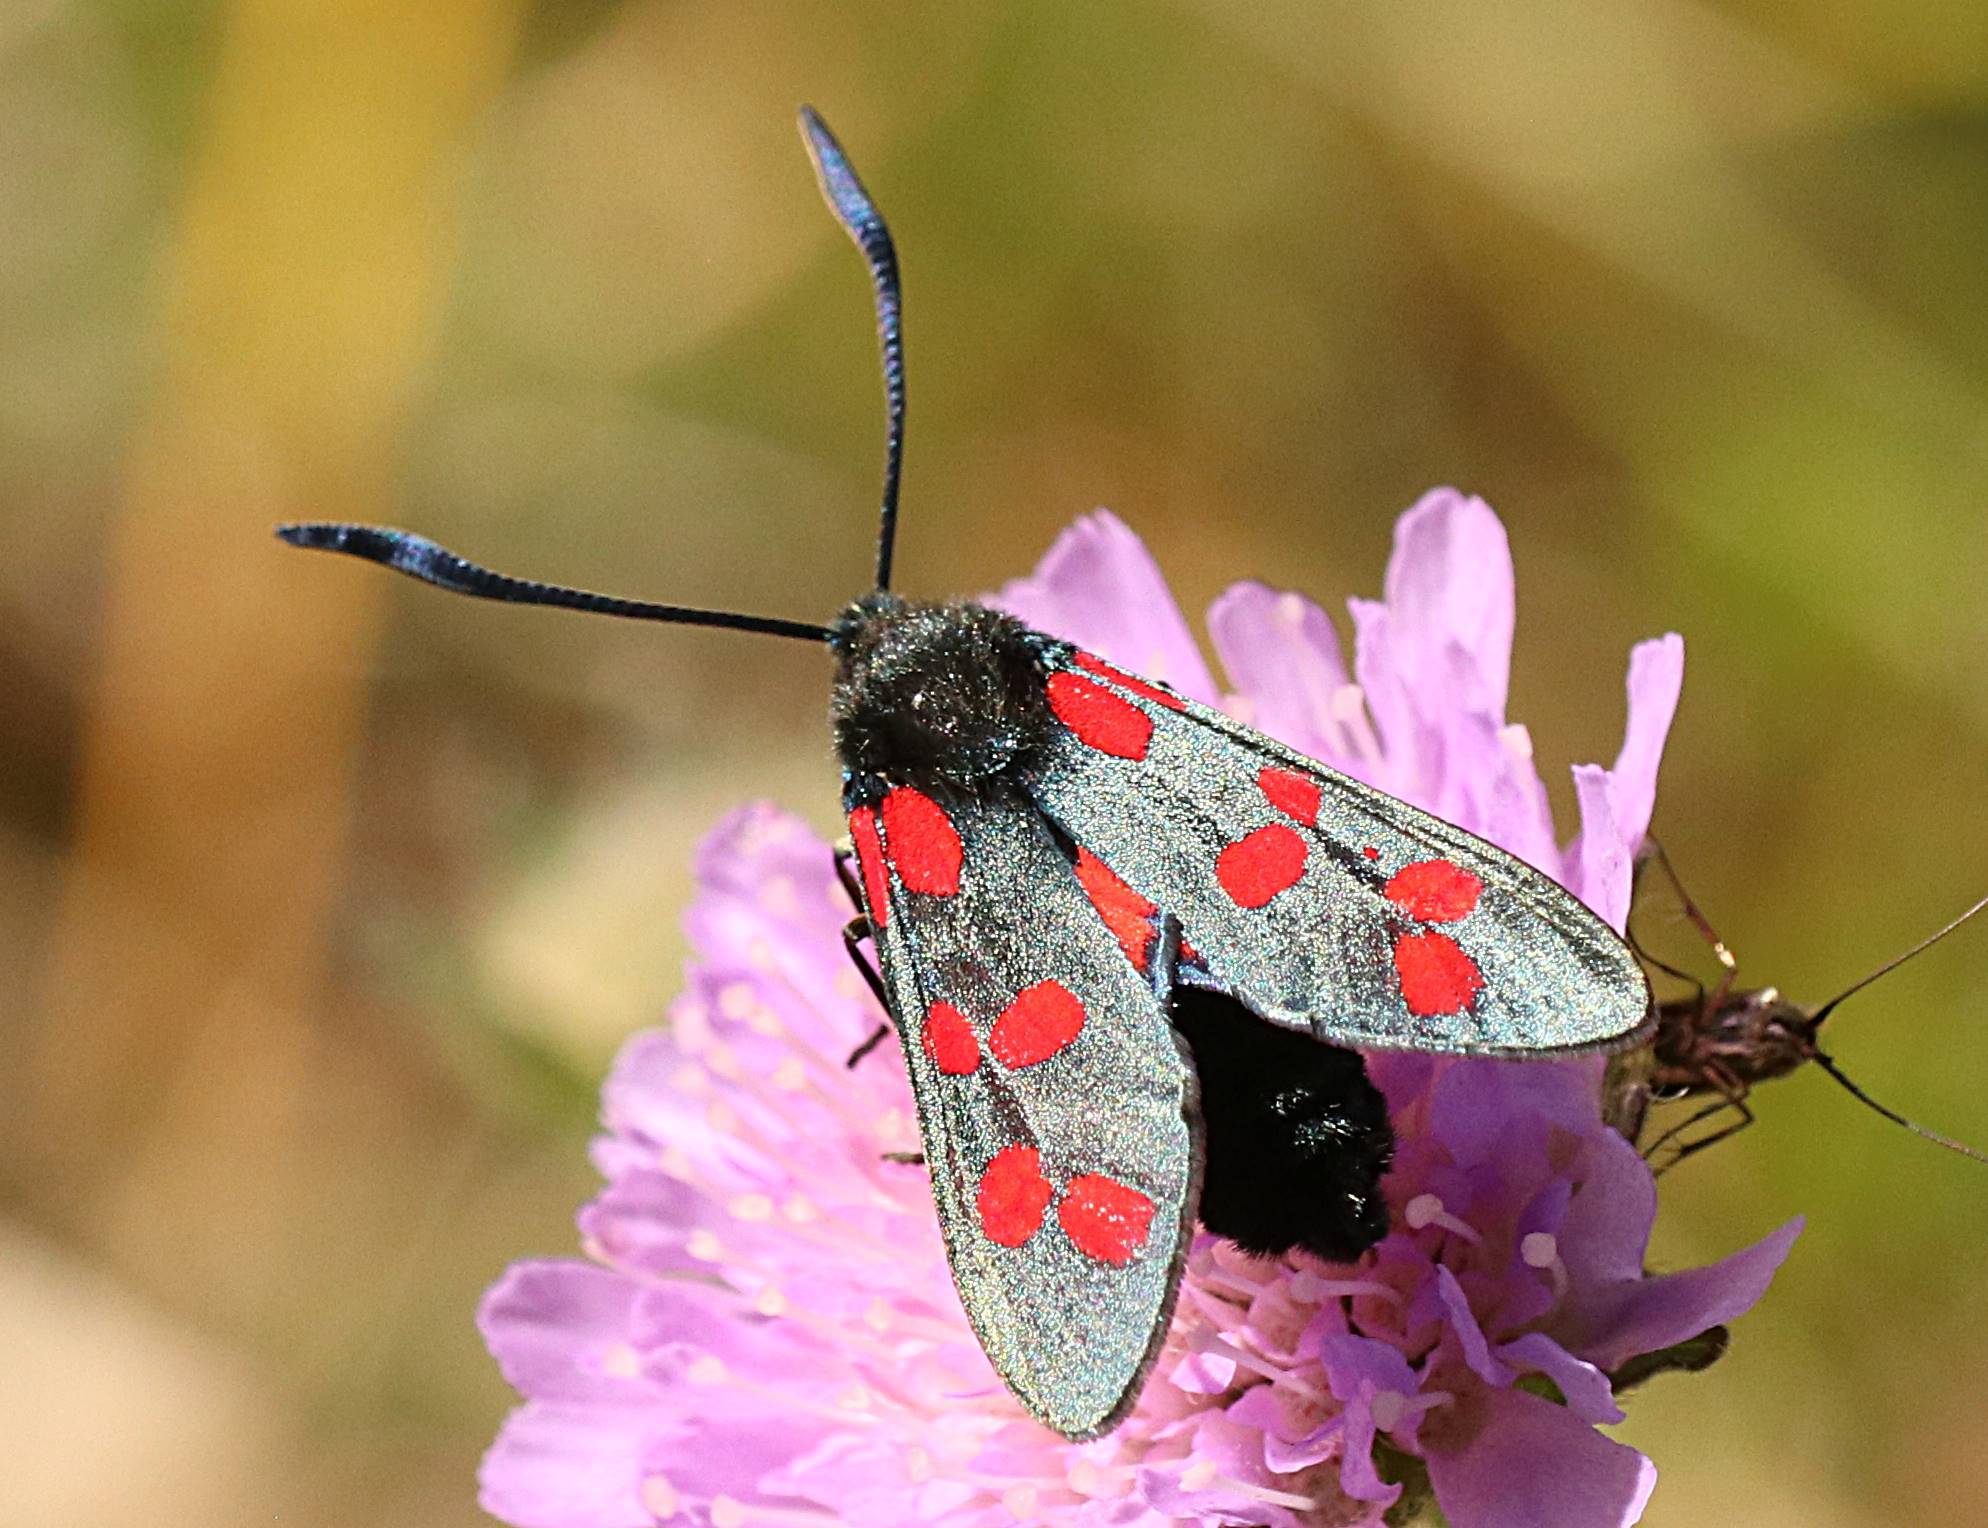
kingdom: Animalia
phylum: Arthropoda
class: Insecta
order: Lepidoptera
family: Zygaenidae
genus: Zygaena
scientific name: Zygaena filipendulae
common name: Six-spot burnet
